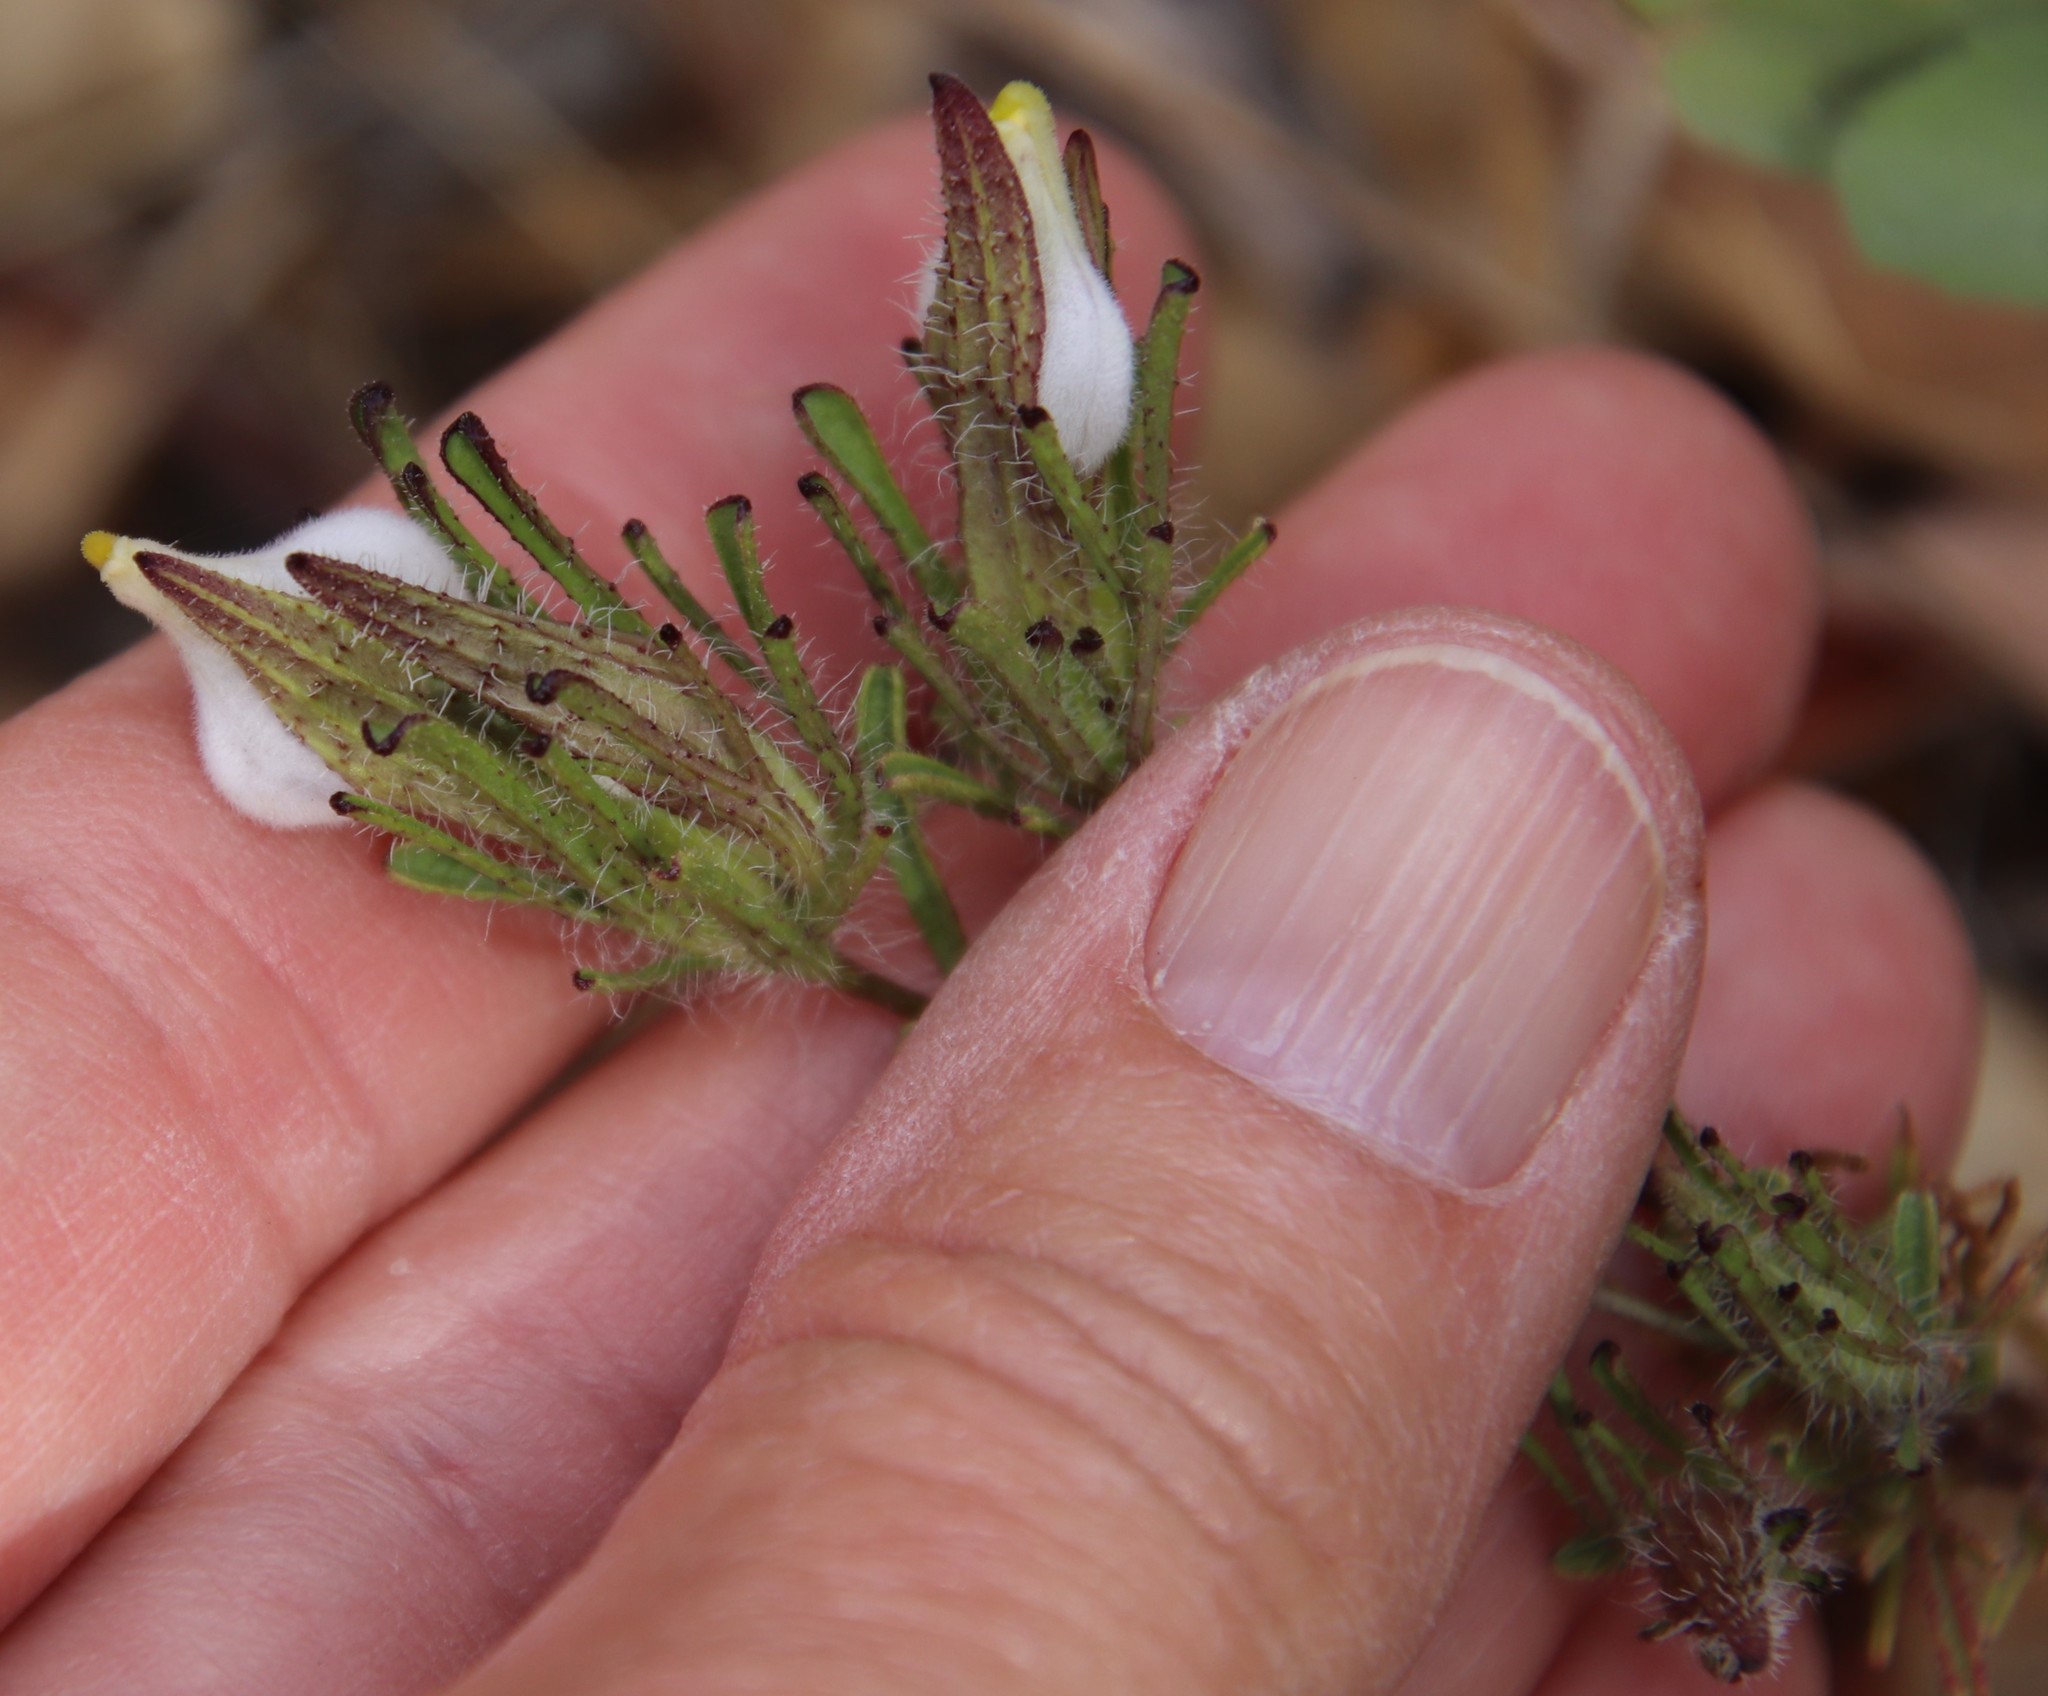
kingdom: Plantae
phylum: Tracheophyta
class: Magnoliopsida
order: Lamiales
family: Orobanchaceae
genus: Cordylanthus
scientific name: Cordylanthus rigidus
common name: Stiff-branch bird's-beak
